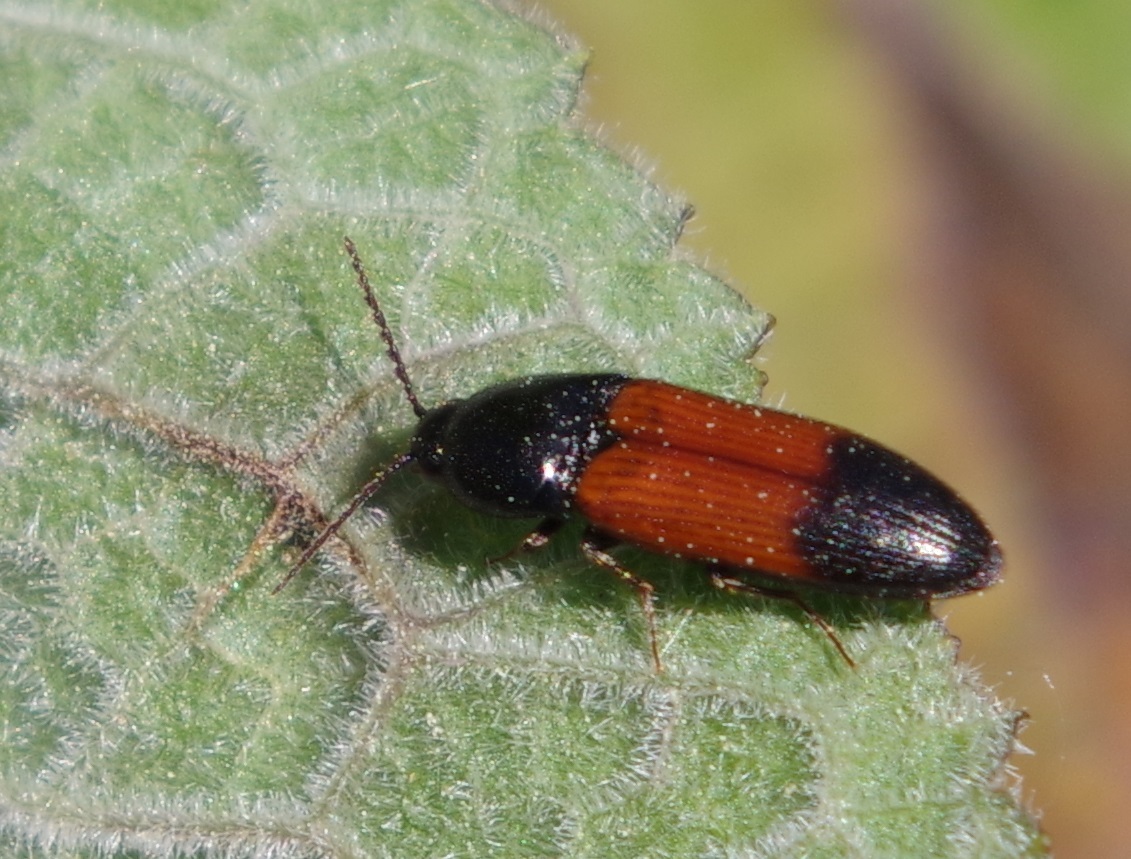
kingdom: Animalia
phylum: Arthropoda
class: Insecta
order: Coleoptera
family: Elateridae
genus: Ampedus
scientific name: Ampedus balteatus
